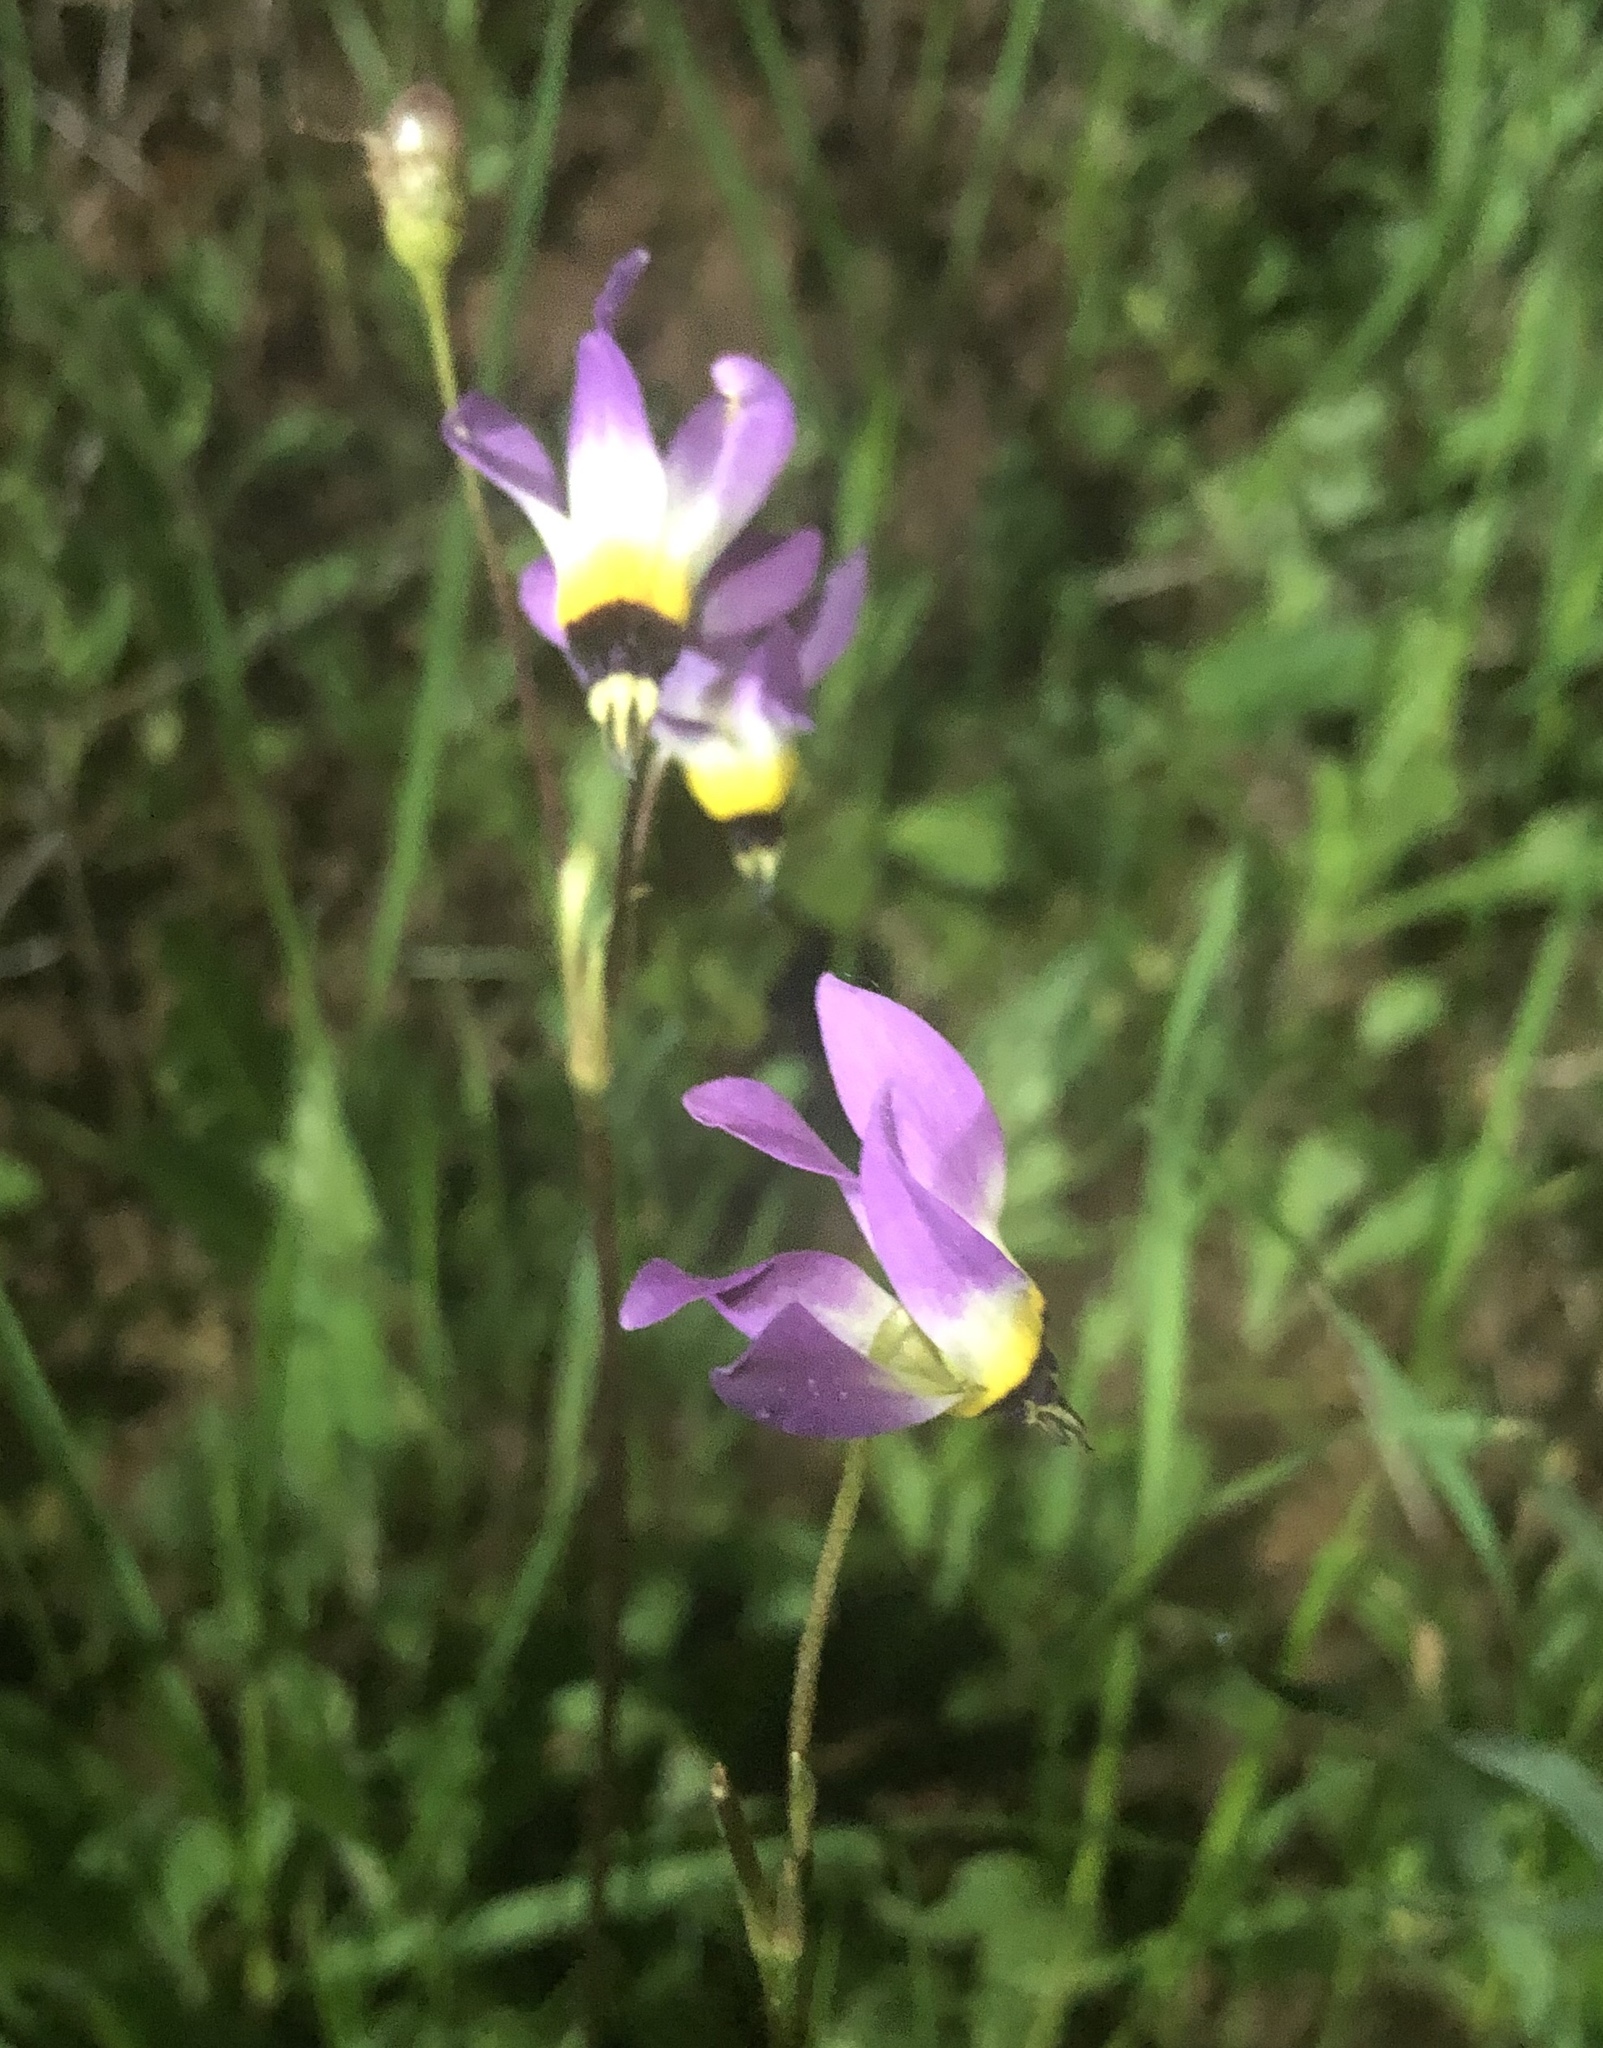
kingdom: Plantae
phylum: Tracheophyta
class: Magnoliopsida
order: Ericales
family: Primulaceae
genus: Dodecatheon
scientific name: Dodecatheon clevelandii
